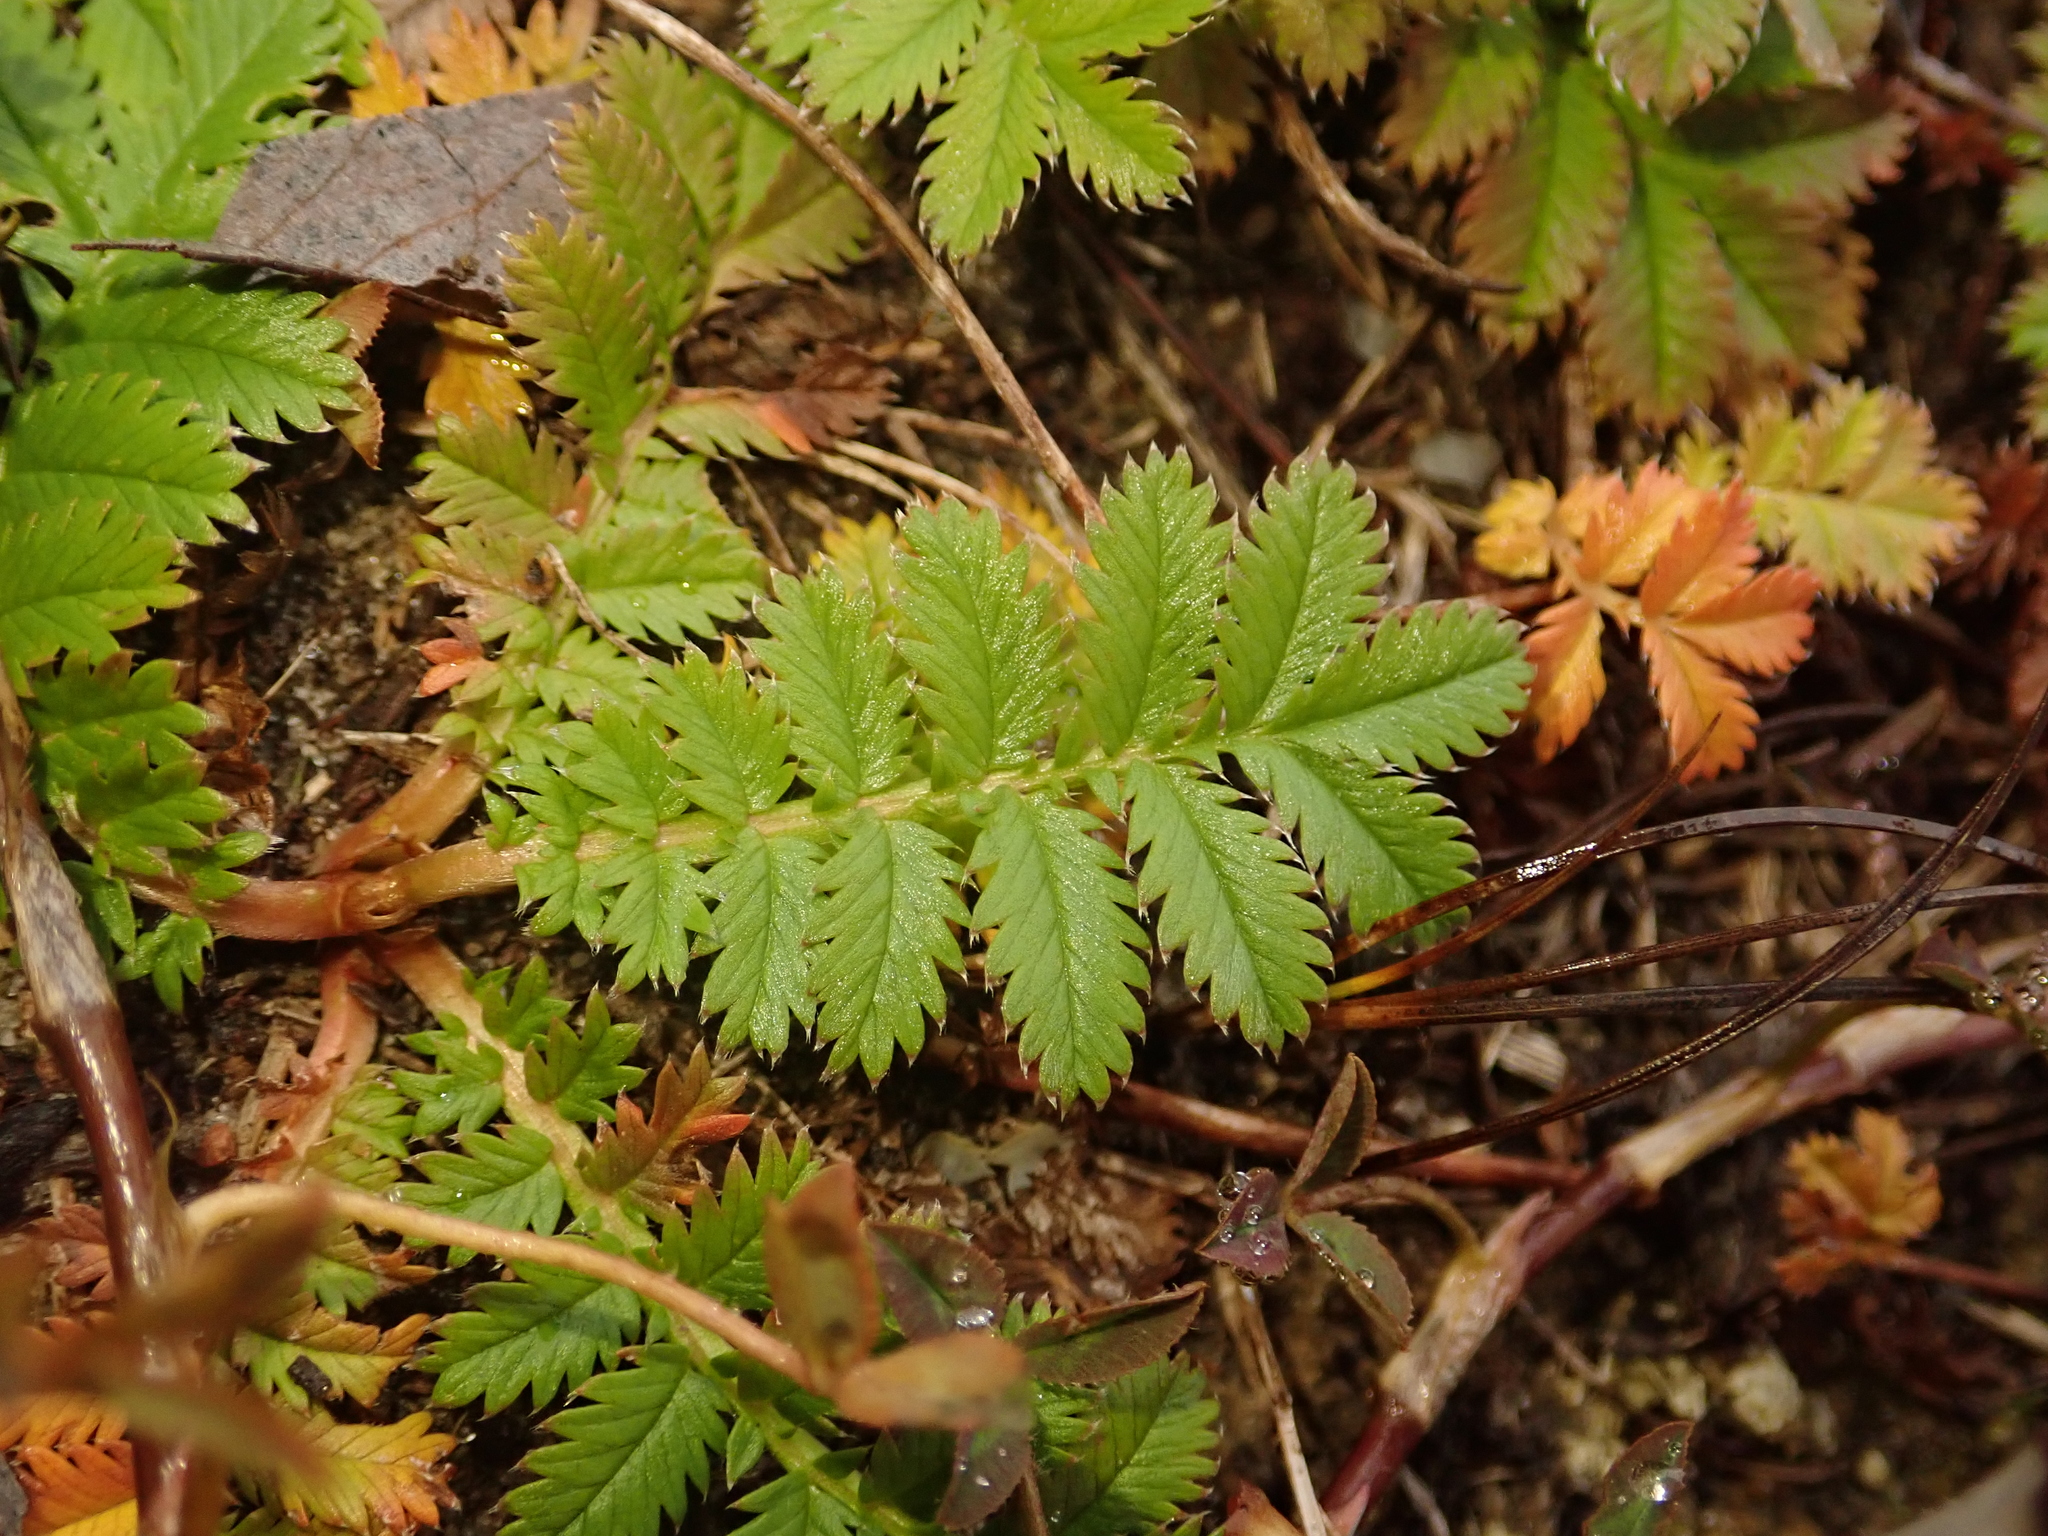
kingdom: Plantae
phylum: Tracheophyta
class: Magnoliopsida
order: Rosales
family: Rosaceae
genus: Argentina
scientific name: Argentina anserina
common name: Common silverweed
